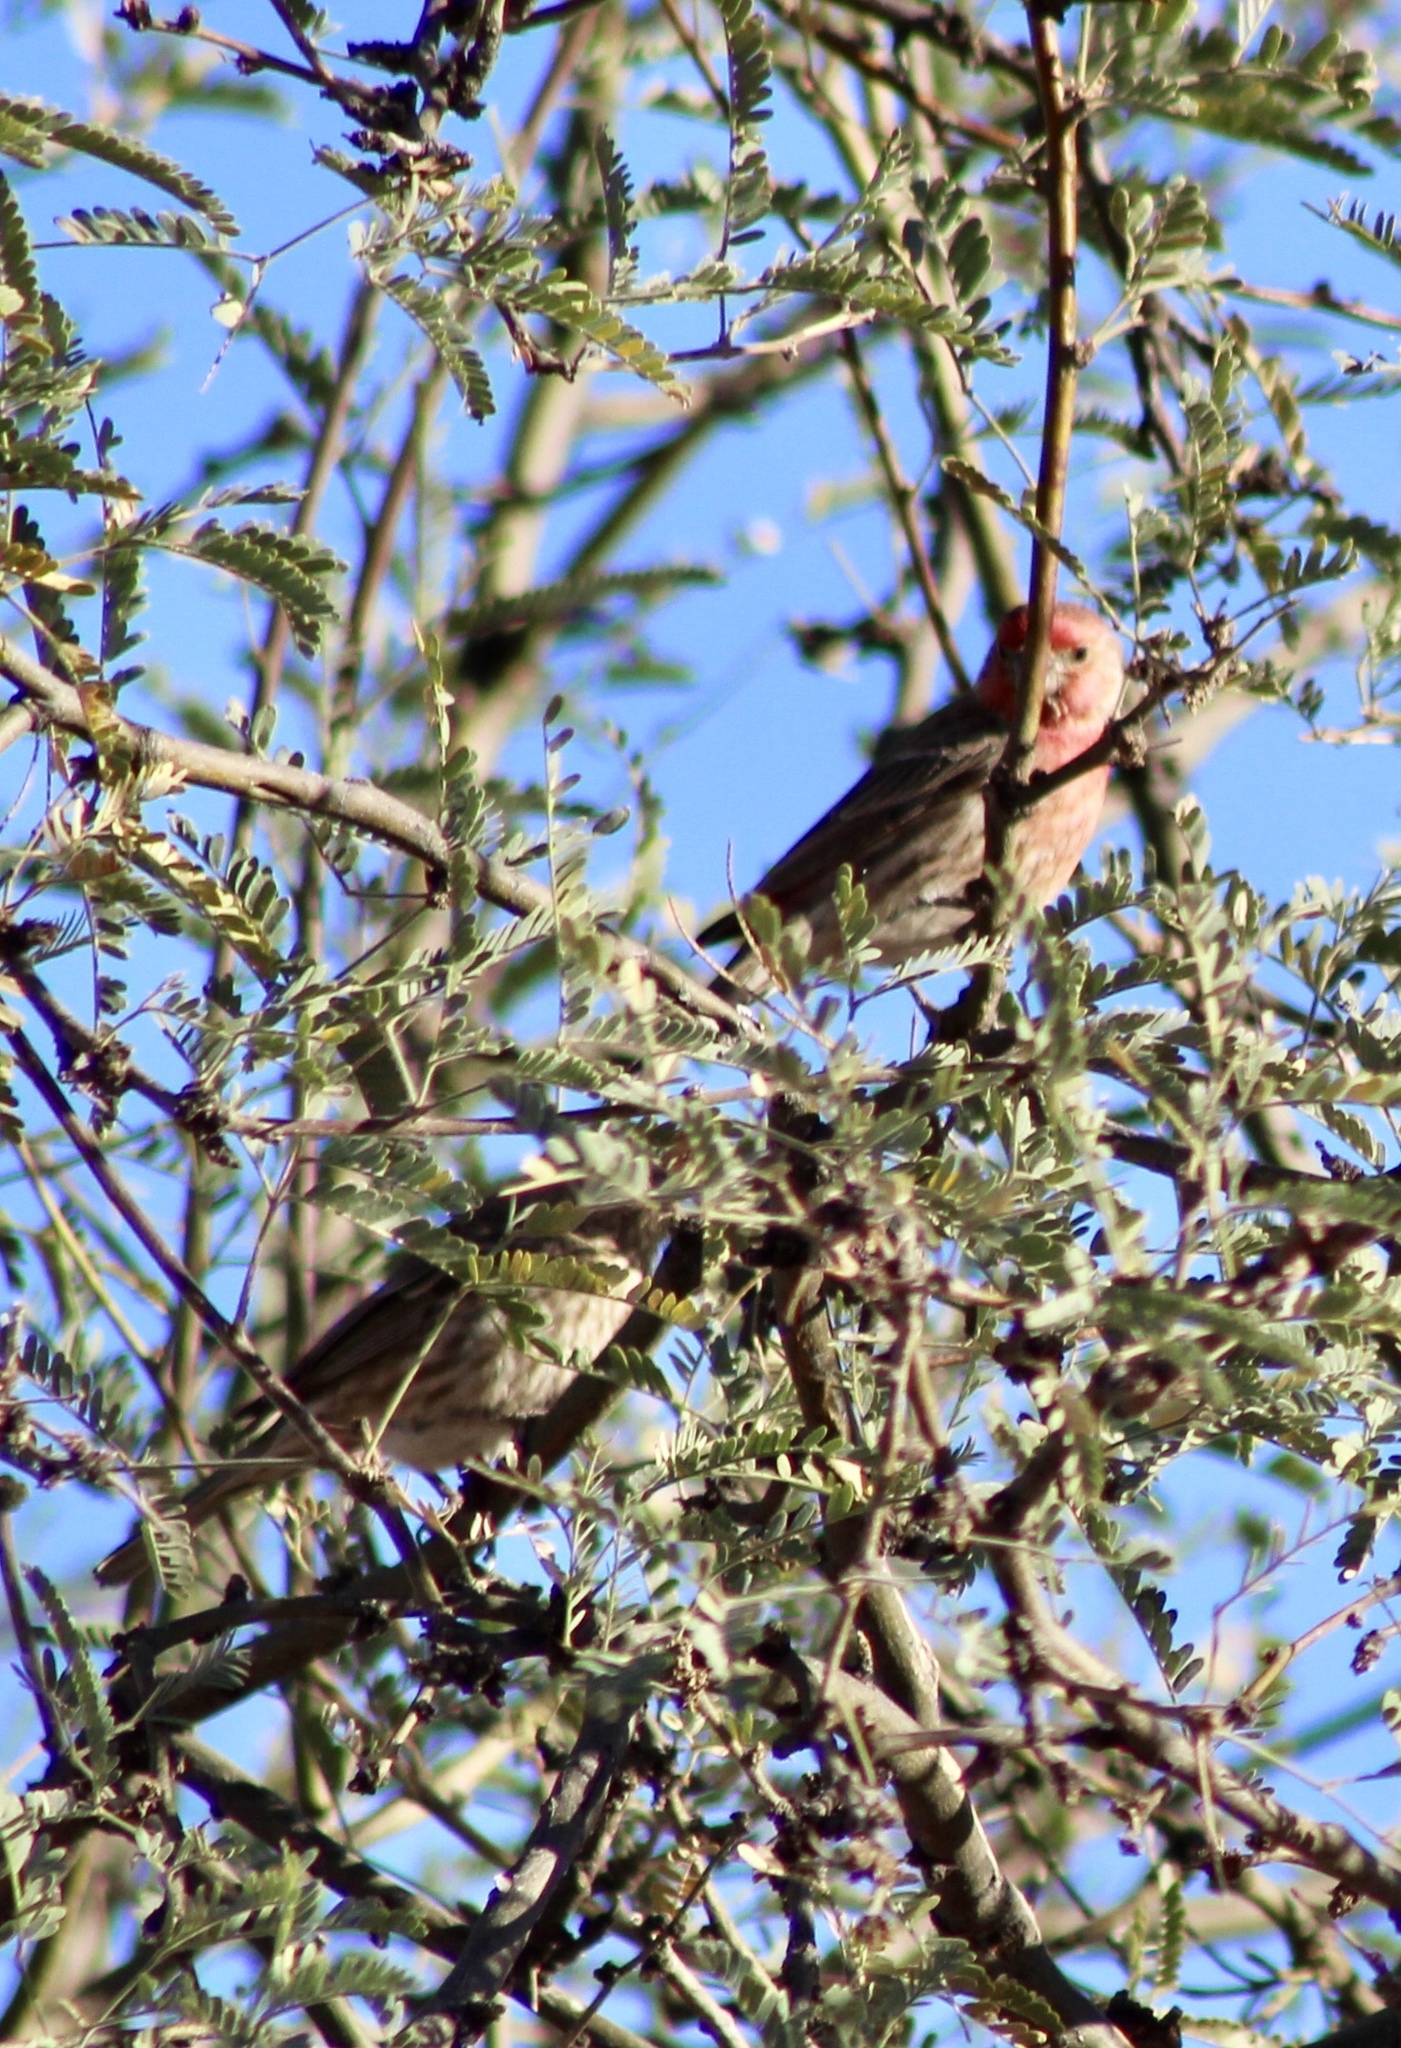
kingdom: Animalia
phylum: Chordata
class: Aves
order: Passeriformes
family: Fringillidae
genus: Haemorhous
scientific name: Haemorhous mexicanus
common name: House finch
